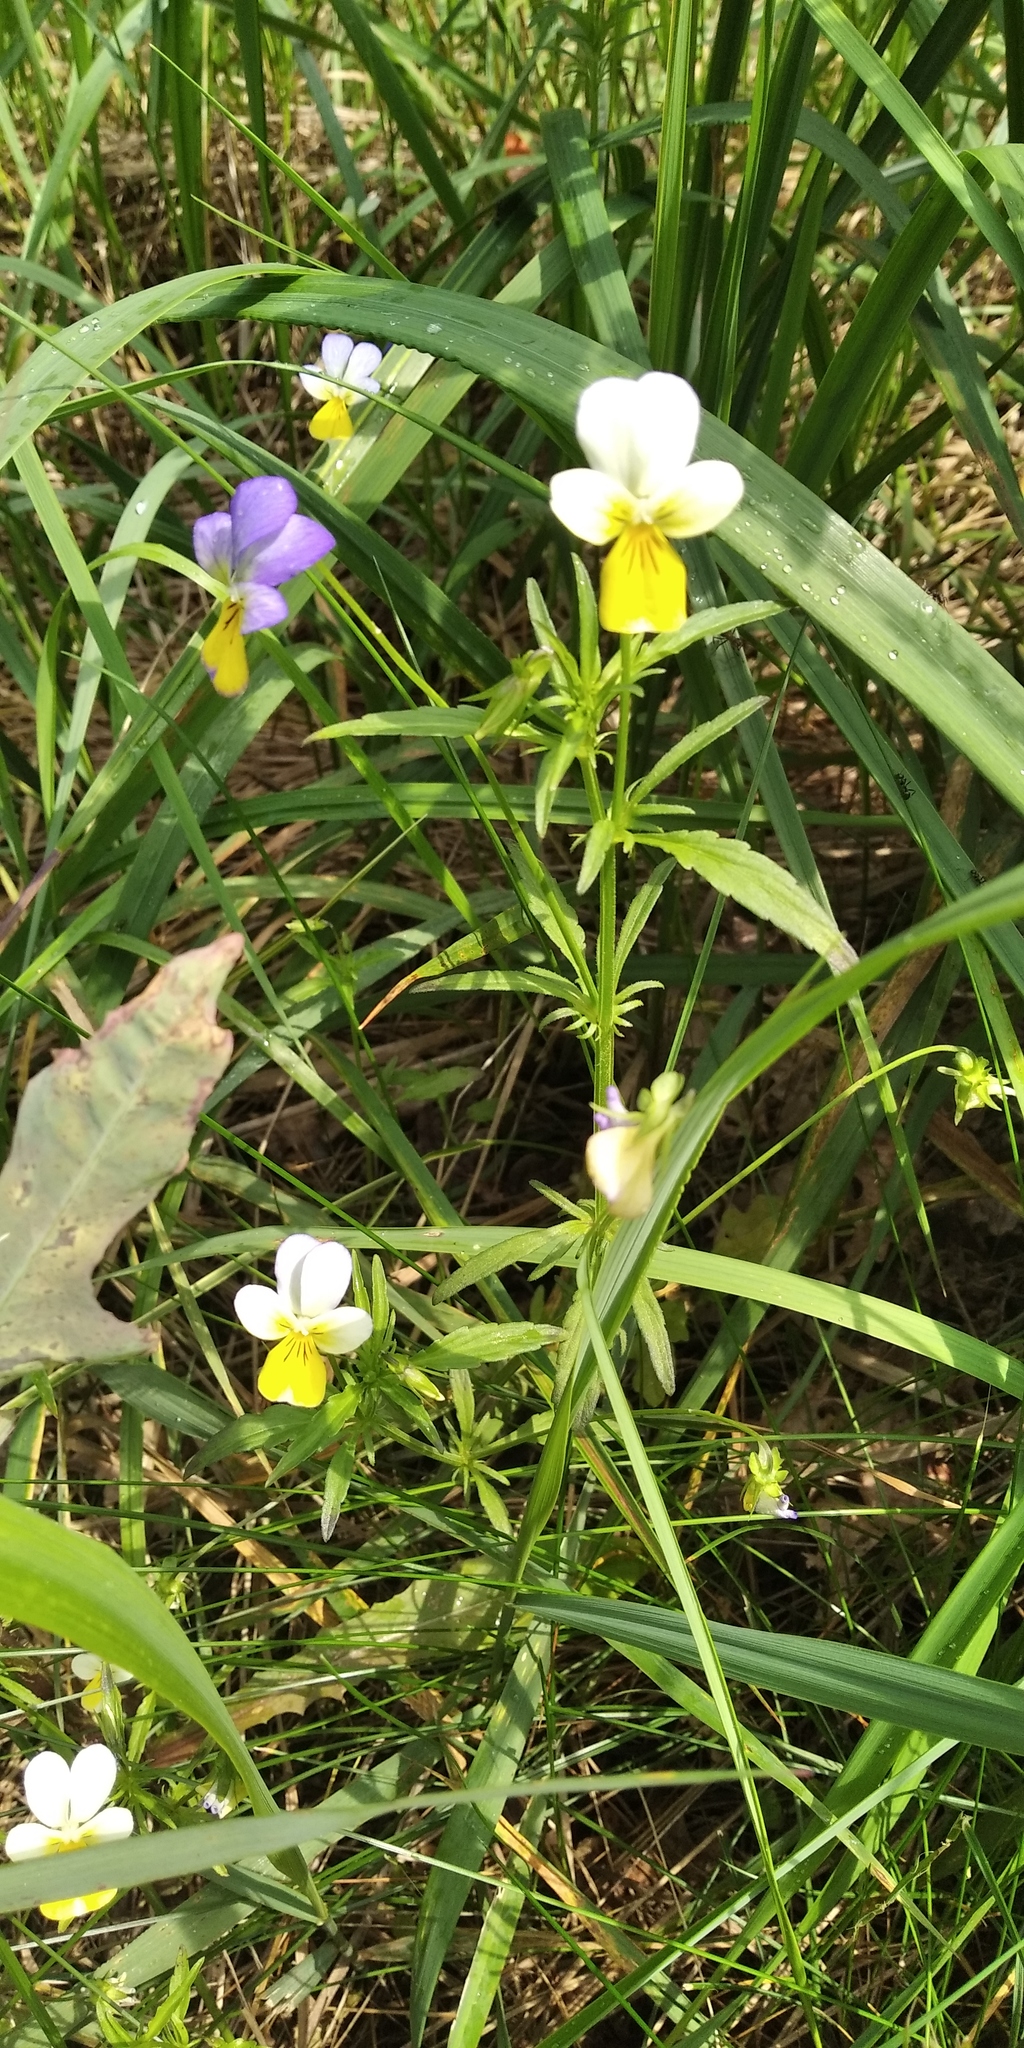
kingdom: Plantae
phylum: Tracheophyta
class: Magnoliopsida
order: Malpighiales
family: Violaceae
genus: Viola
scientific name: Viola tricolor
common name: Pansy
